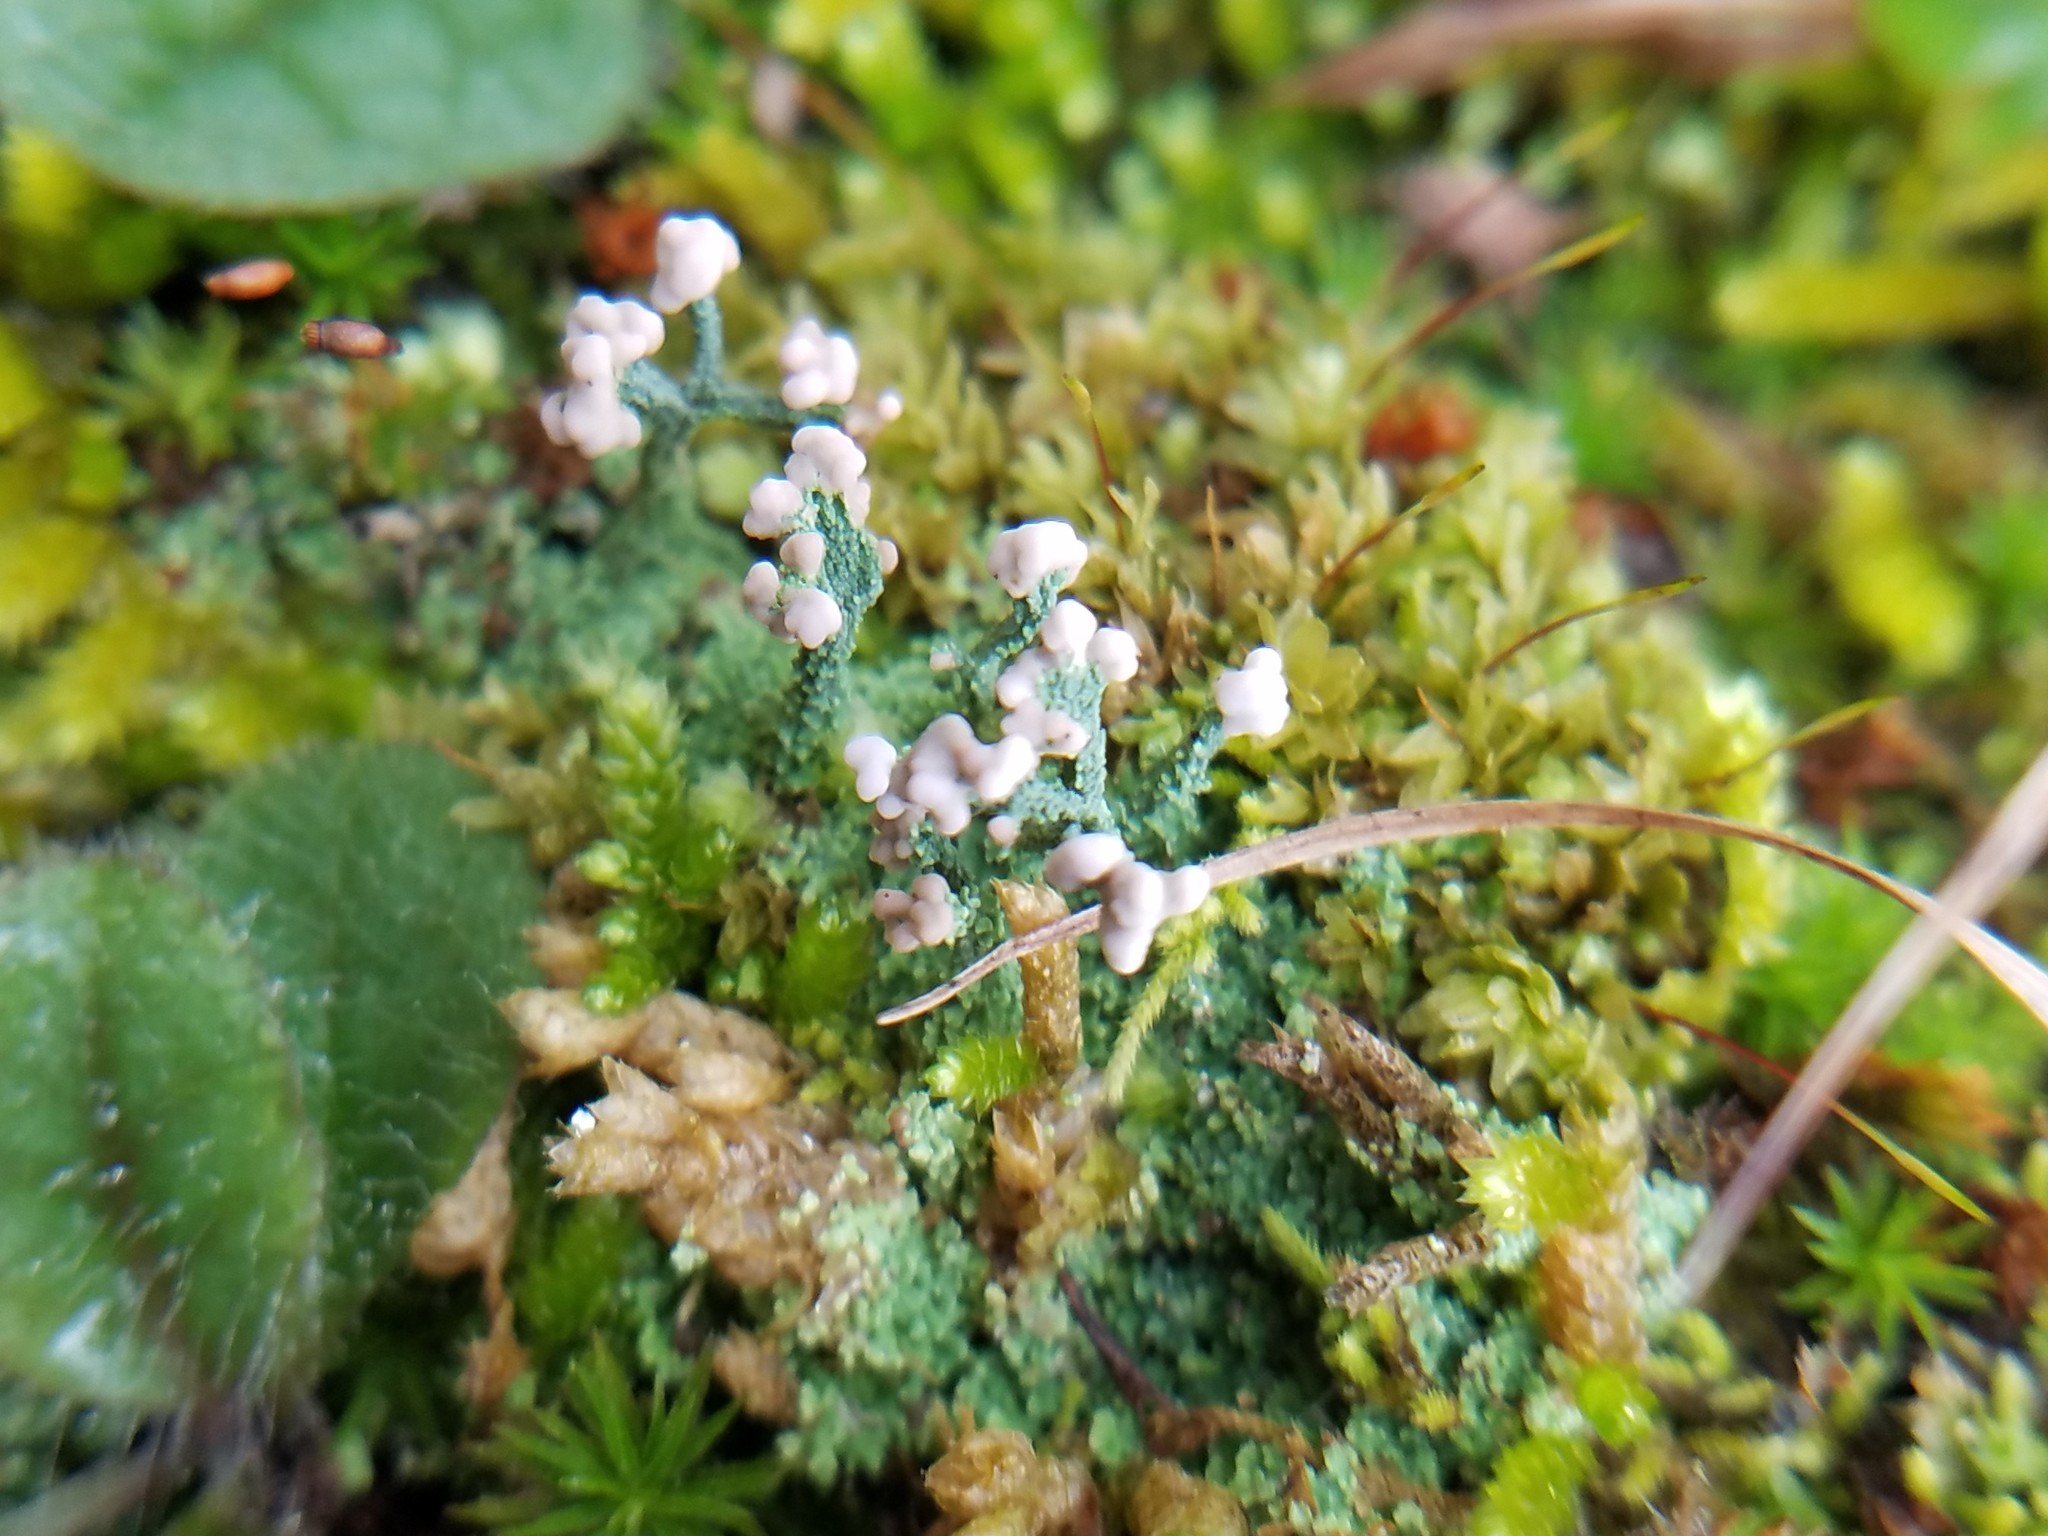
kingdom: Fungi
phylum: Ascomycota
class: Lecanoromycetes
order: Lecanorales
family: Cladoniaceae
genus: Cladonia
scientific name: Cladonia peziziformis
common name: Cup lichen
